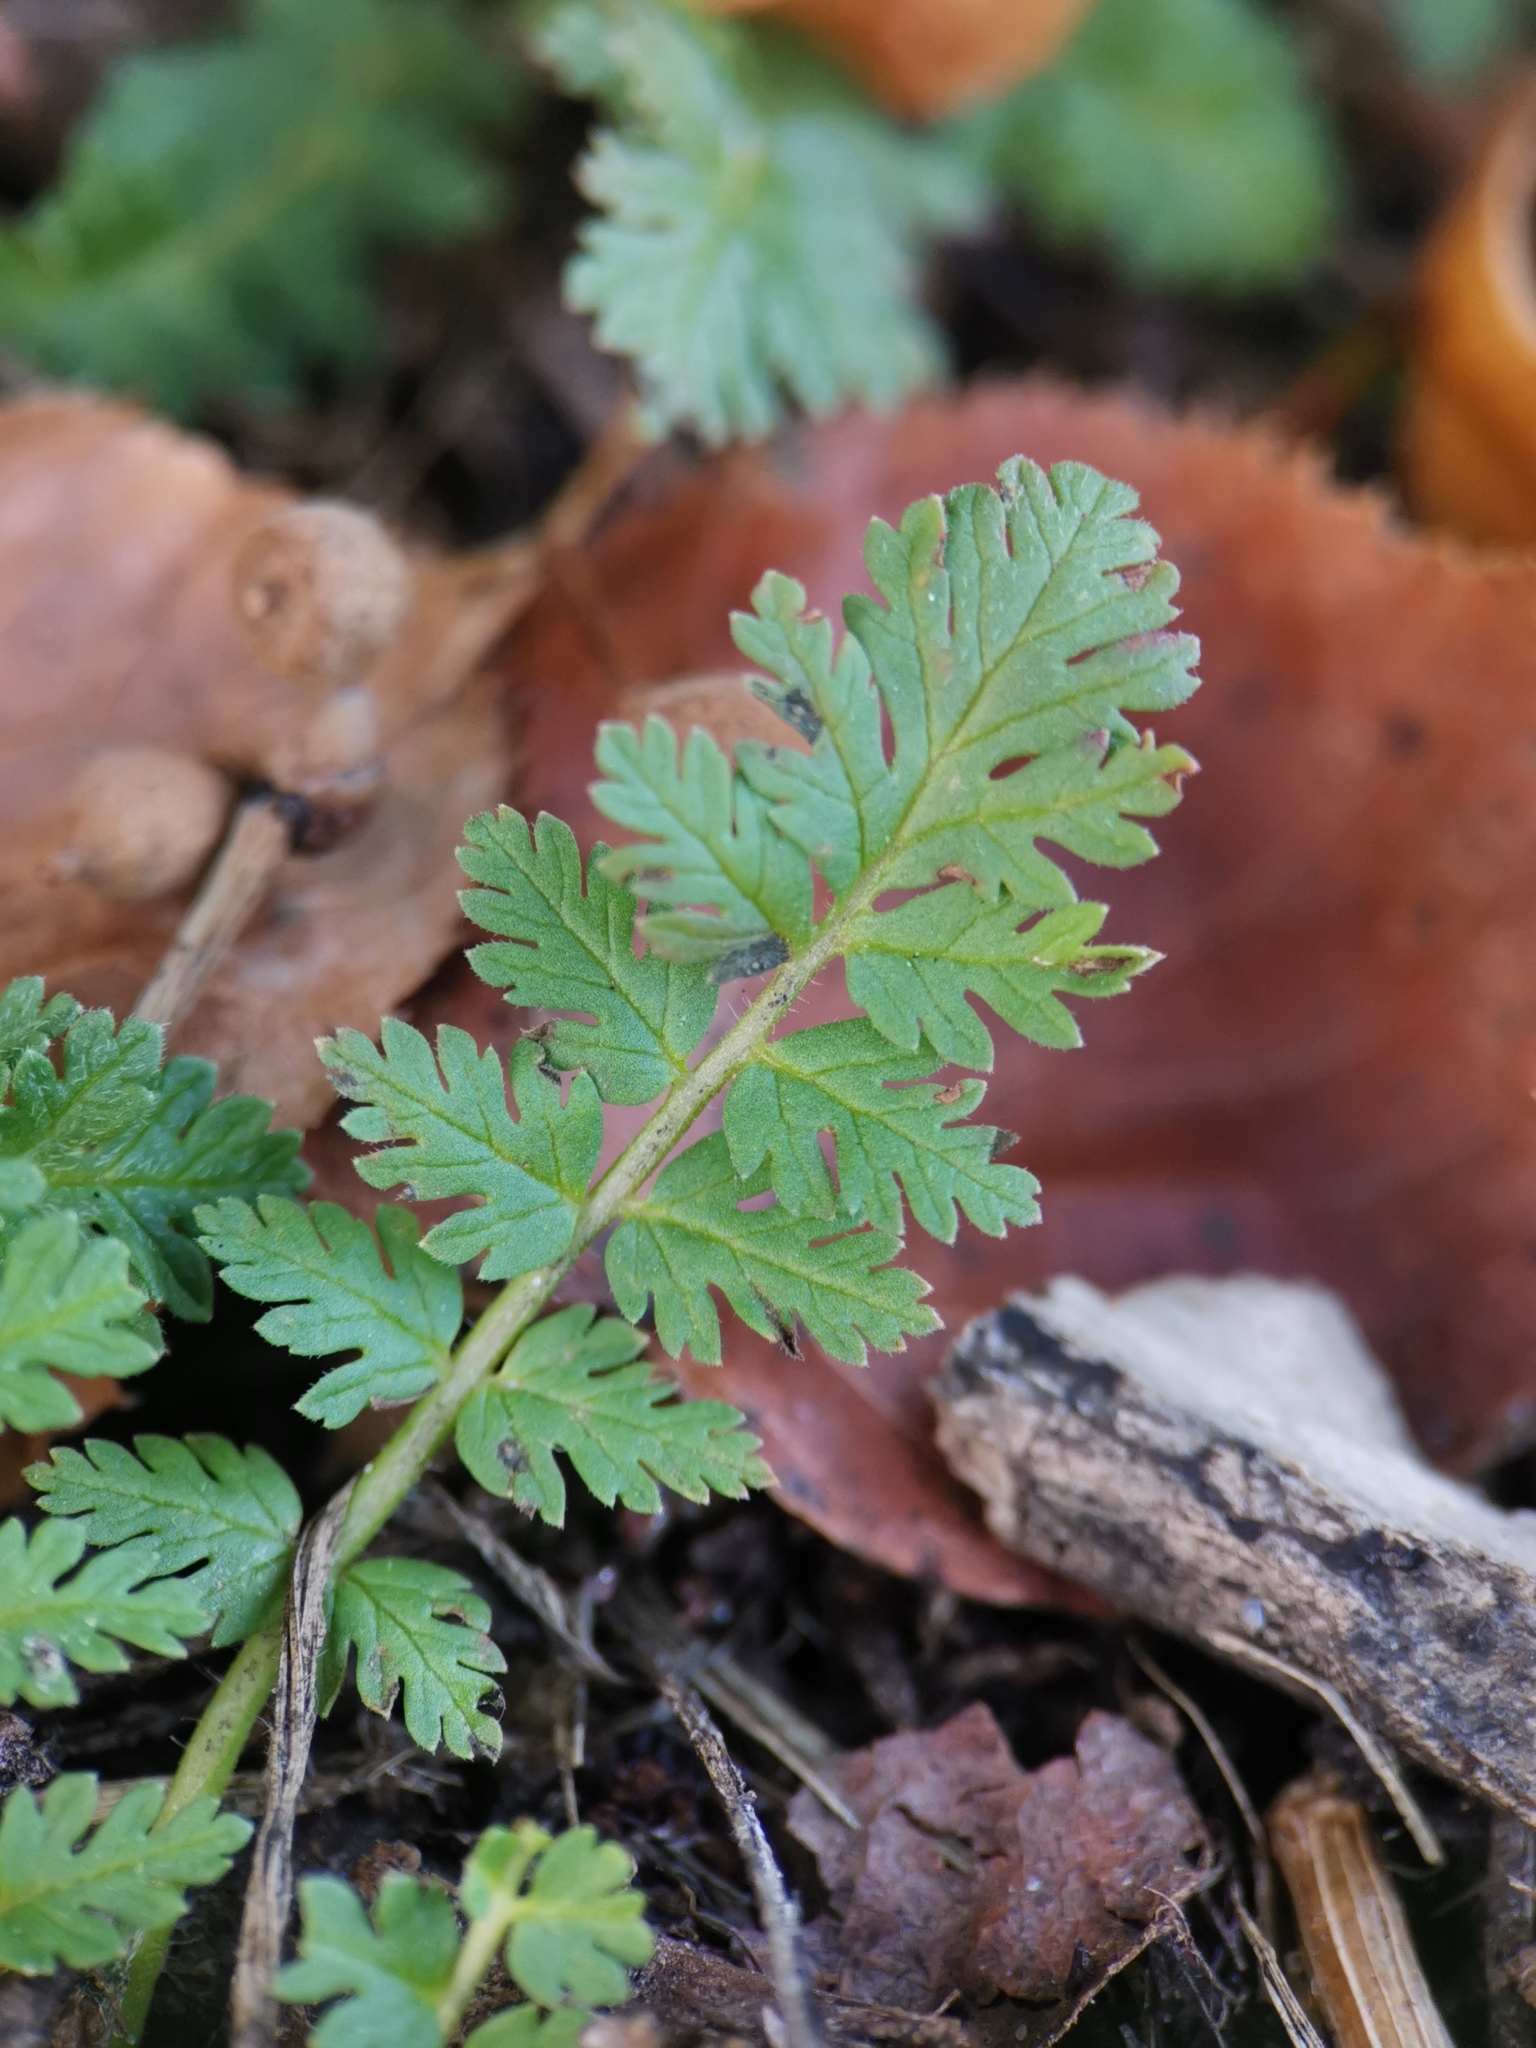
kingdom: Plantae
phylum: Tracheophyta
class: Magnoliopsida
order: Geraniales
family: Geraniaceae
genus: Erodium
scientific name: Erodium cicutarium
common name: Common stork's-bill
